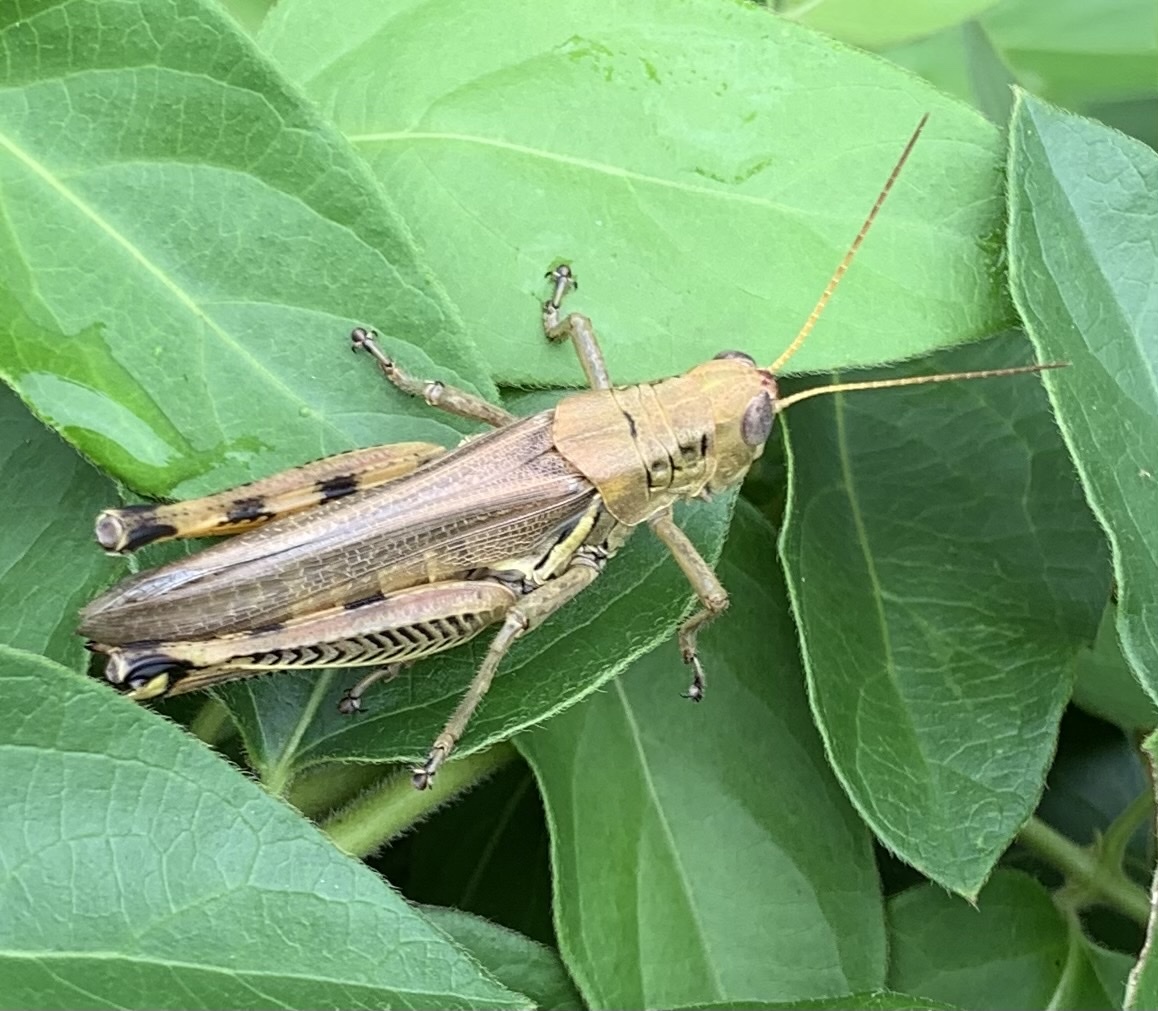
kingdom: Animalia
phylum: Arthropoda
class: Insecta
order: Orthoptera
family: Acrididae
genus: Melanoplus
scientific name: Melanoplus differentialis
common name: Differential grasshopper
